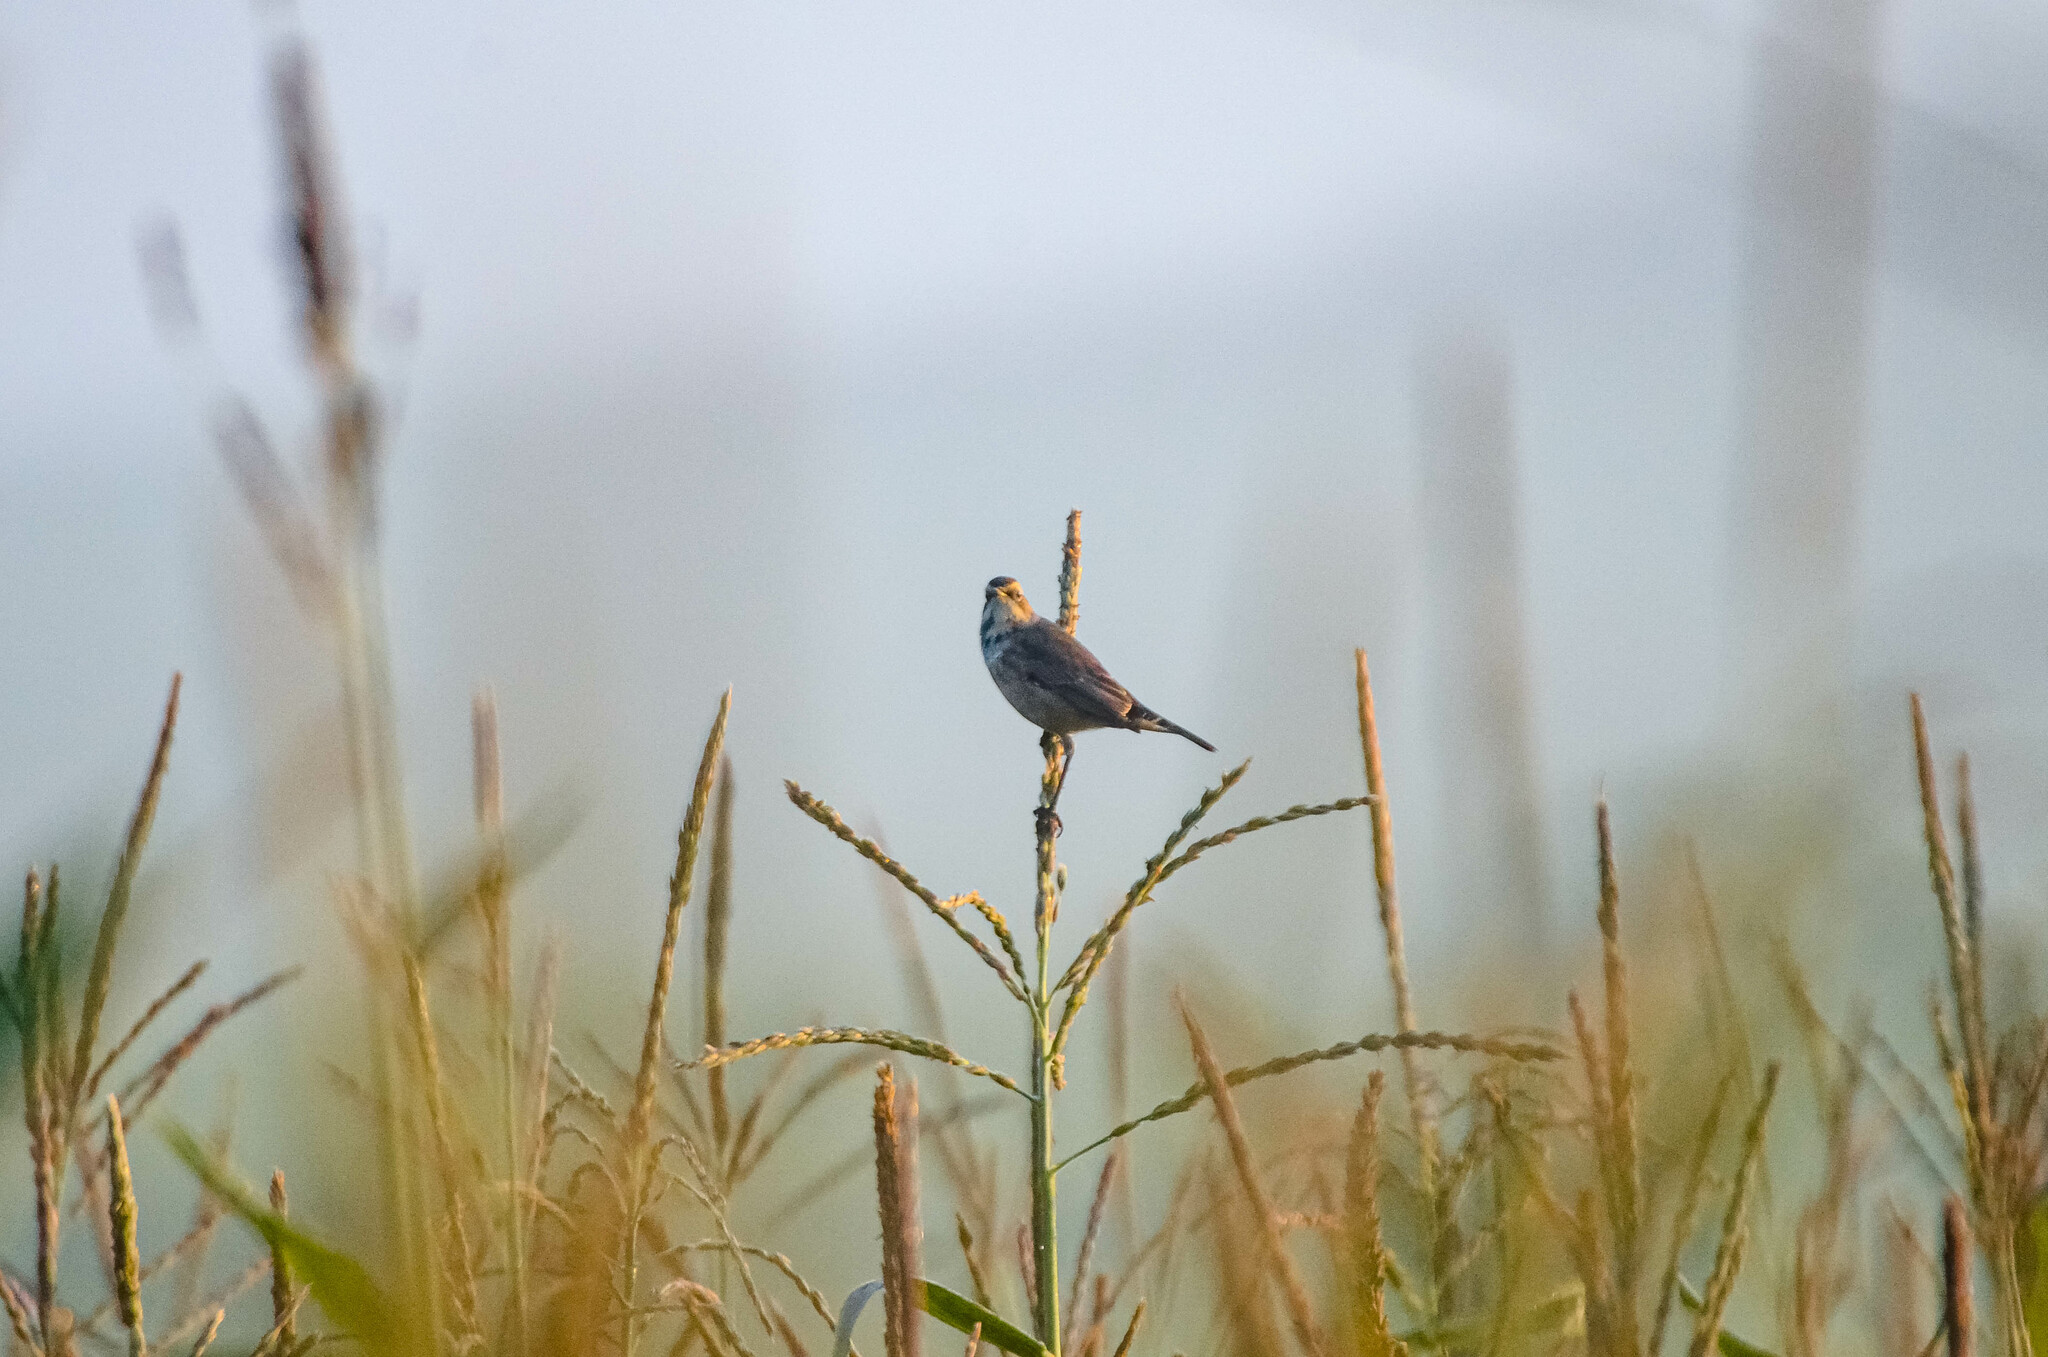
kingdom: Animalia
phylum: Chordata
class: Aves
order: Passeriformes
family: Muscicapidae
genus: Luscinia
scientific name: Luscinia svecica
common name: Bluethroat
